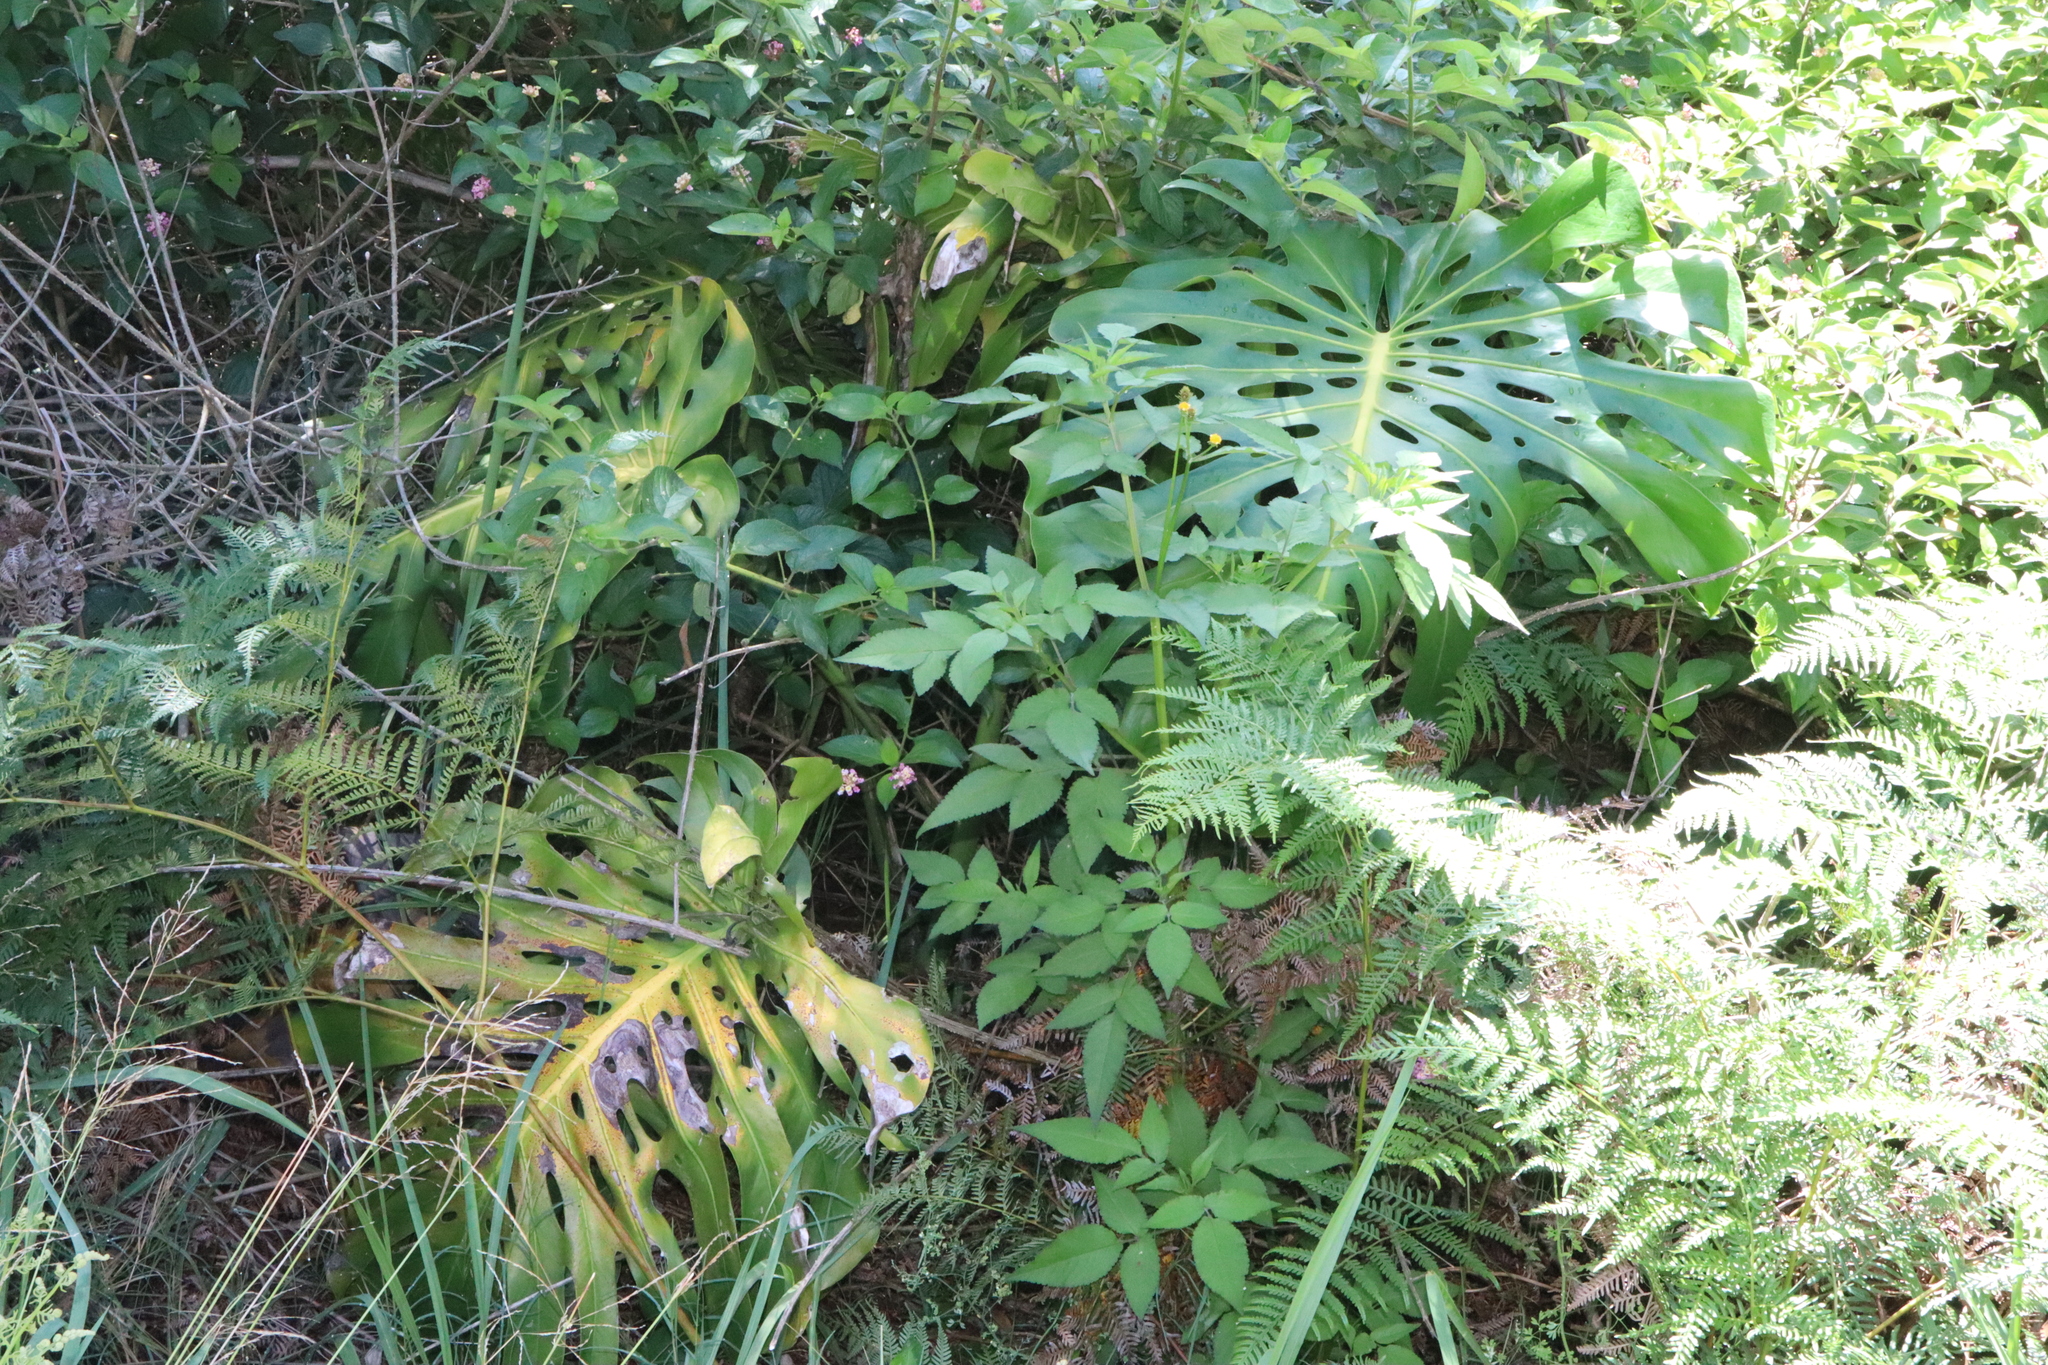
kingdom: Plantae
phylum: Tracheophyta
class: Liliopsida
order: Alismatales
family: Araceae
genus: Monstera
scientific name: Monstera deliciosa
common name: Cut-leaf-philodendron
